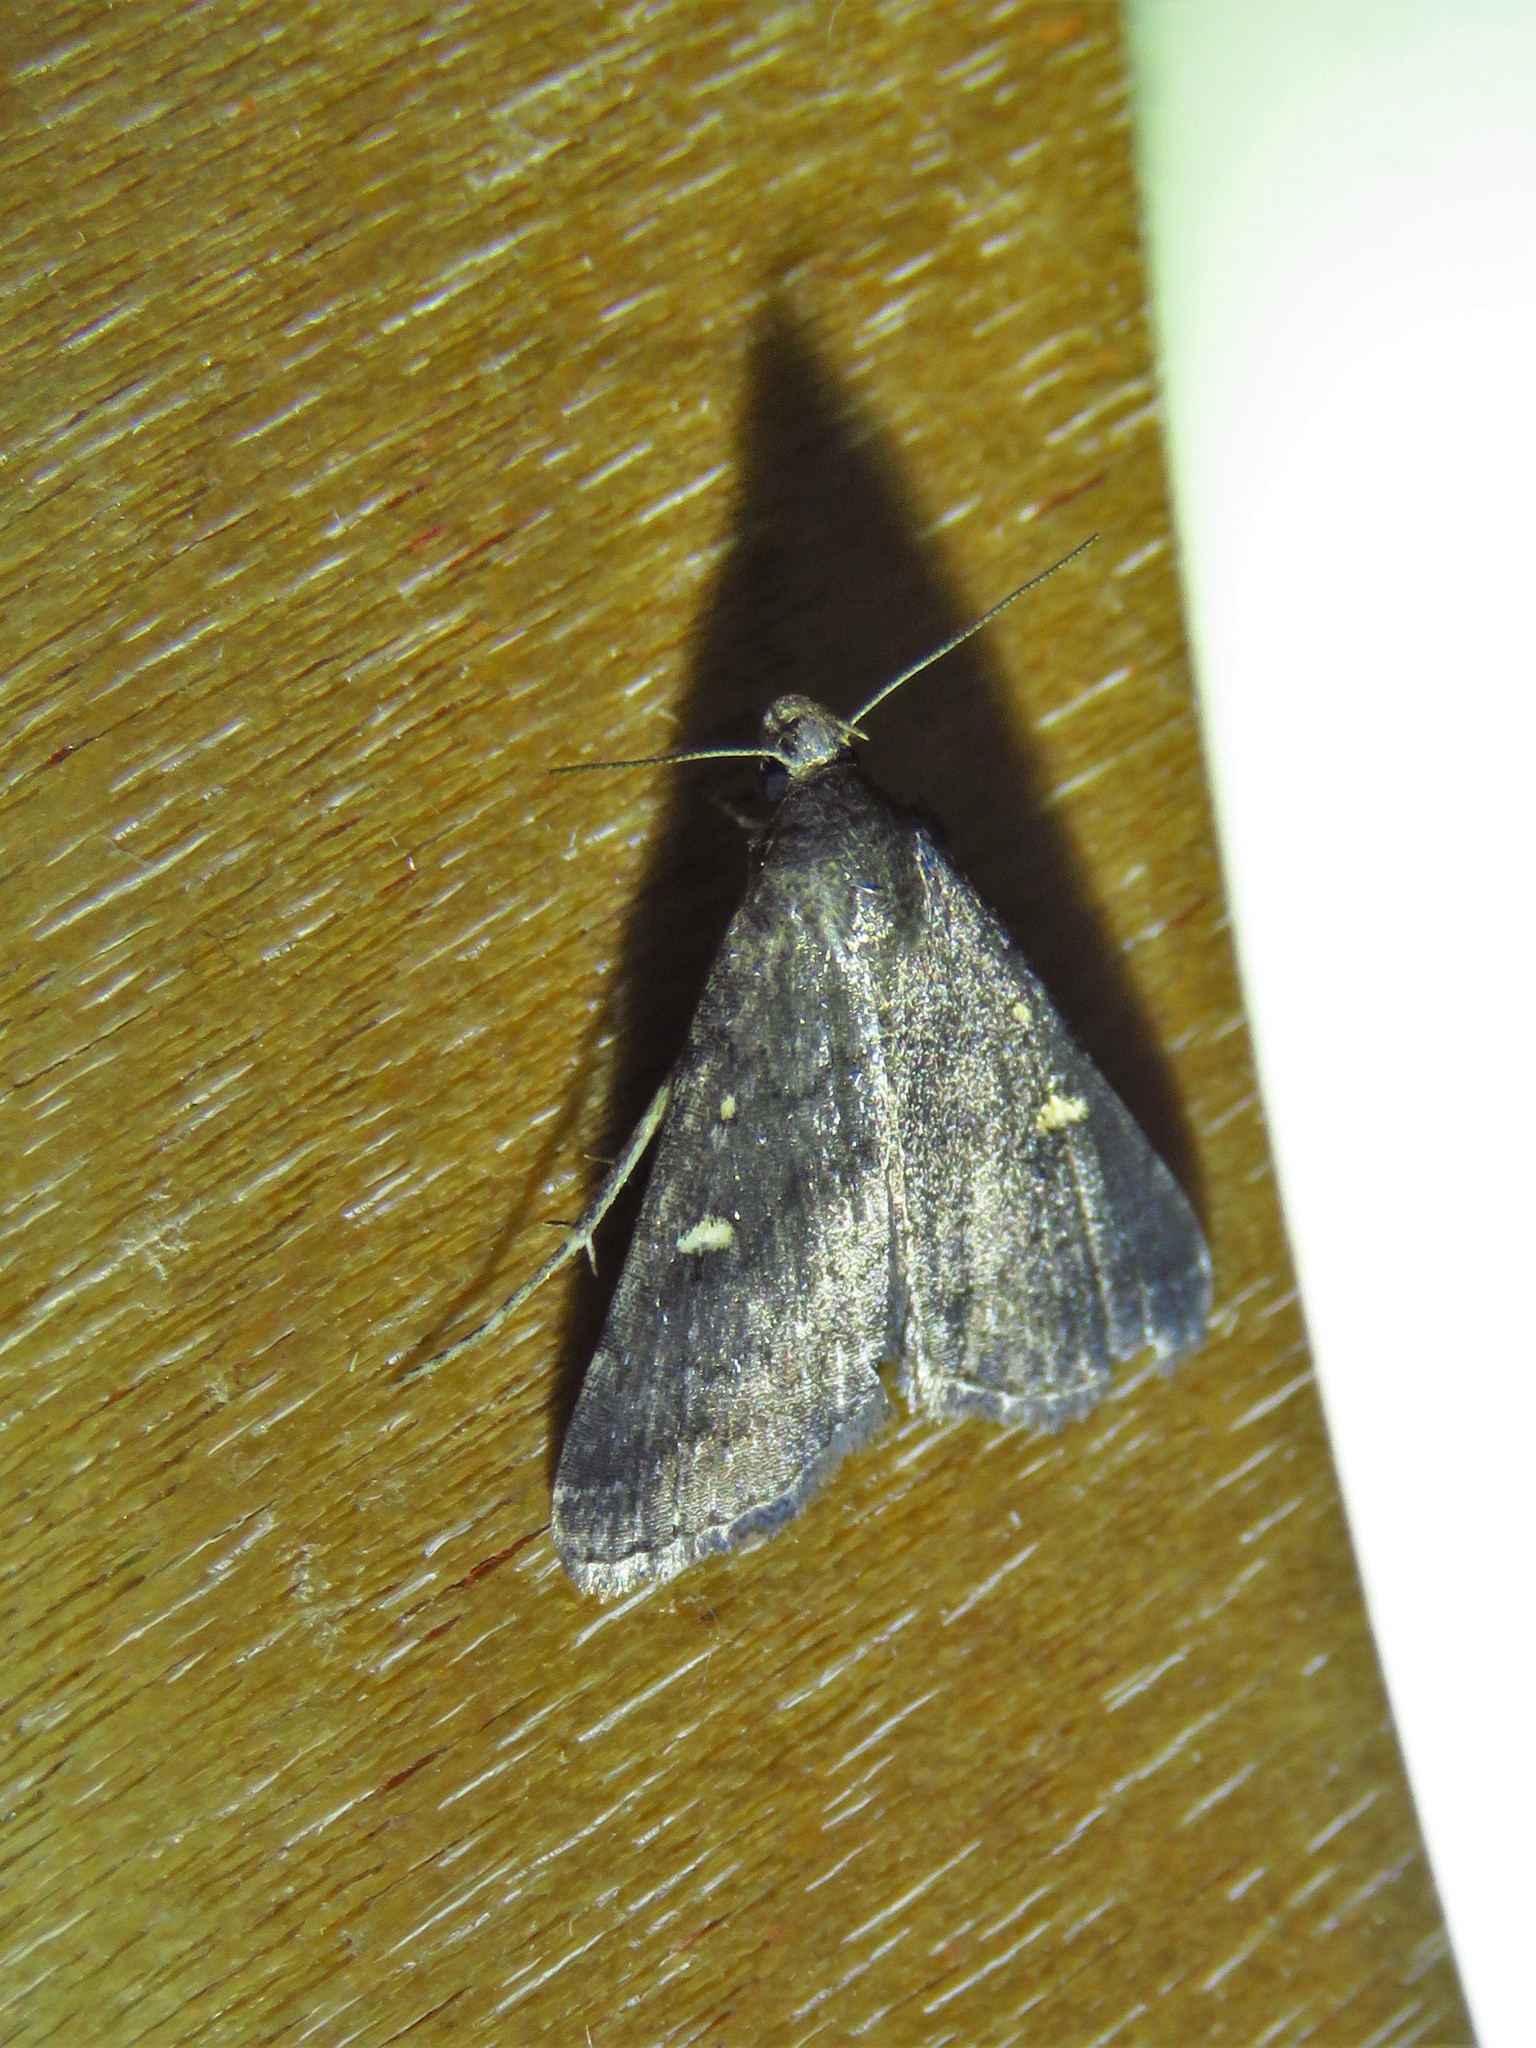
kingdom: Animalia
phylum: Arthropoda
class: Insecta
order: Lepidoptera
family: Erebidae
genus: Tetanolita
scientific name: Tetanolita mynesalis
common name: Smoky tetanolita moth
